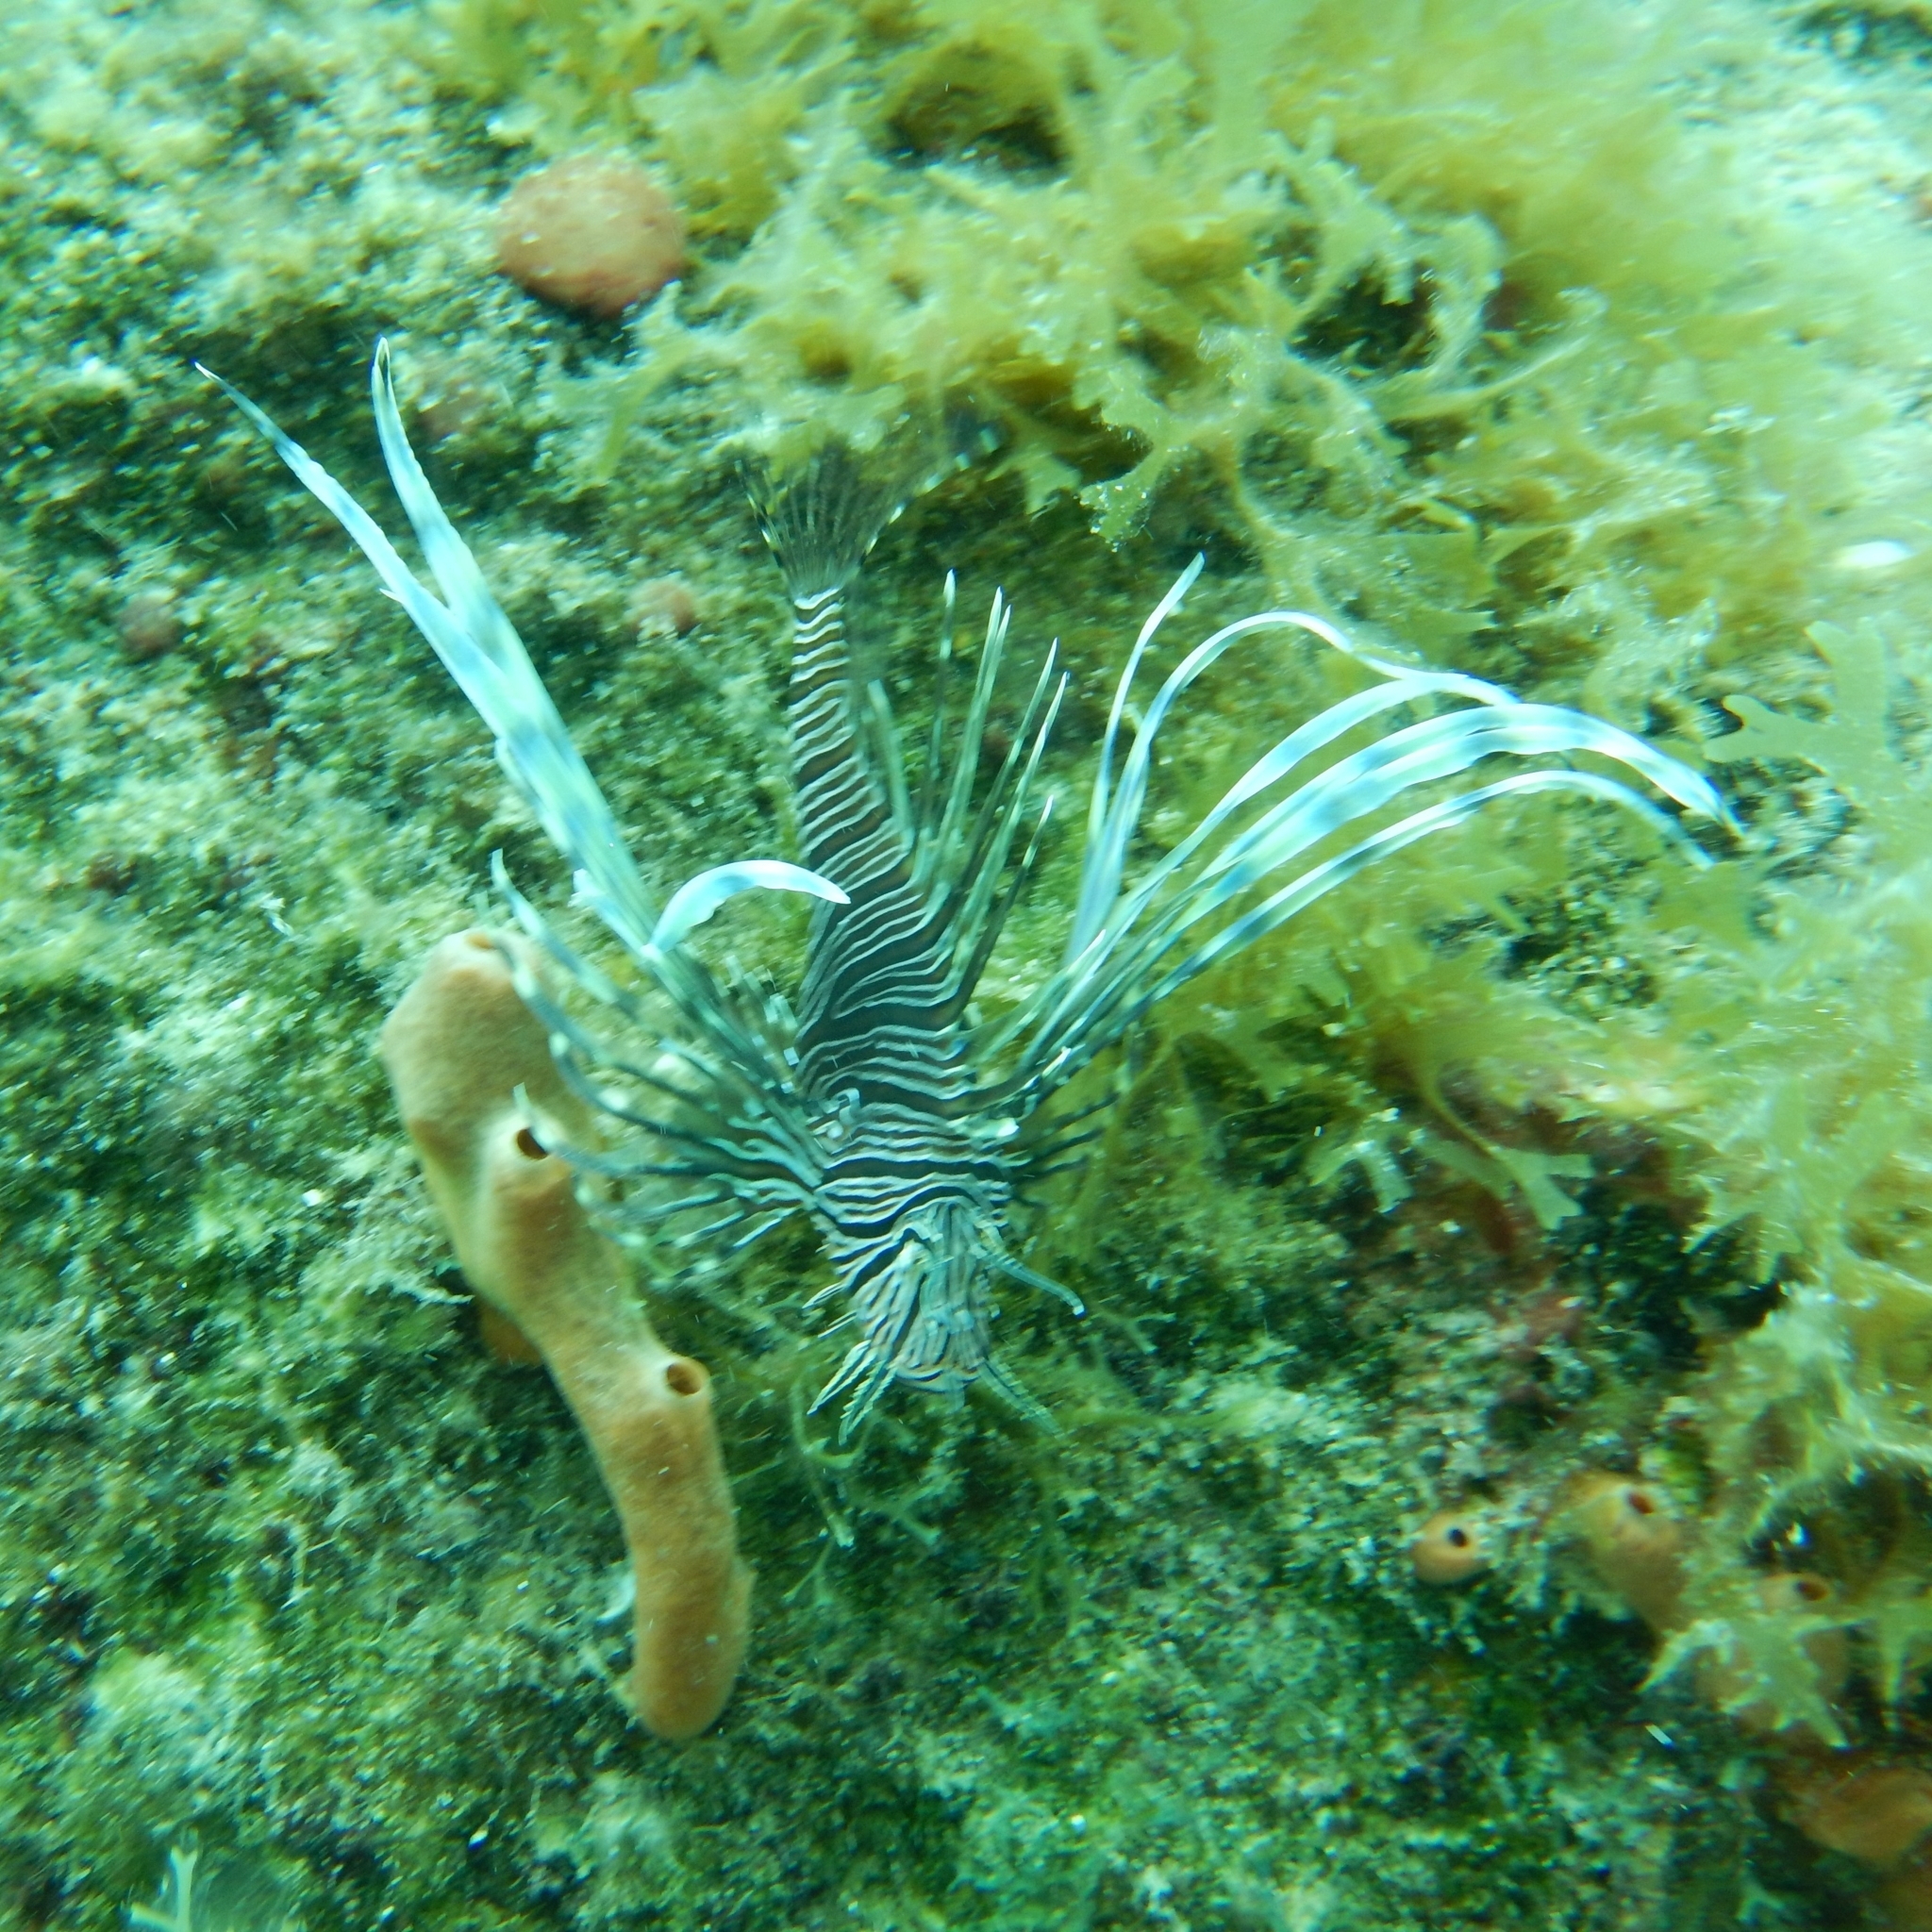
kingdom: Animalia
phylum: Chordata
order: Scorpaeniformes
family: Scorpaenidae
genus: Pterois
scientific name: Pterois volitans
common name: Lionfish
